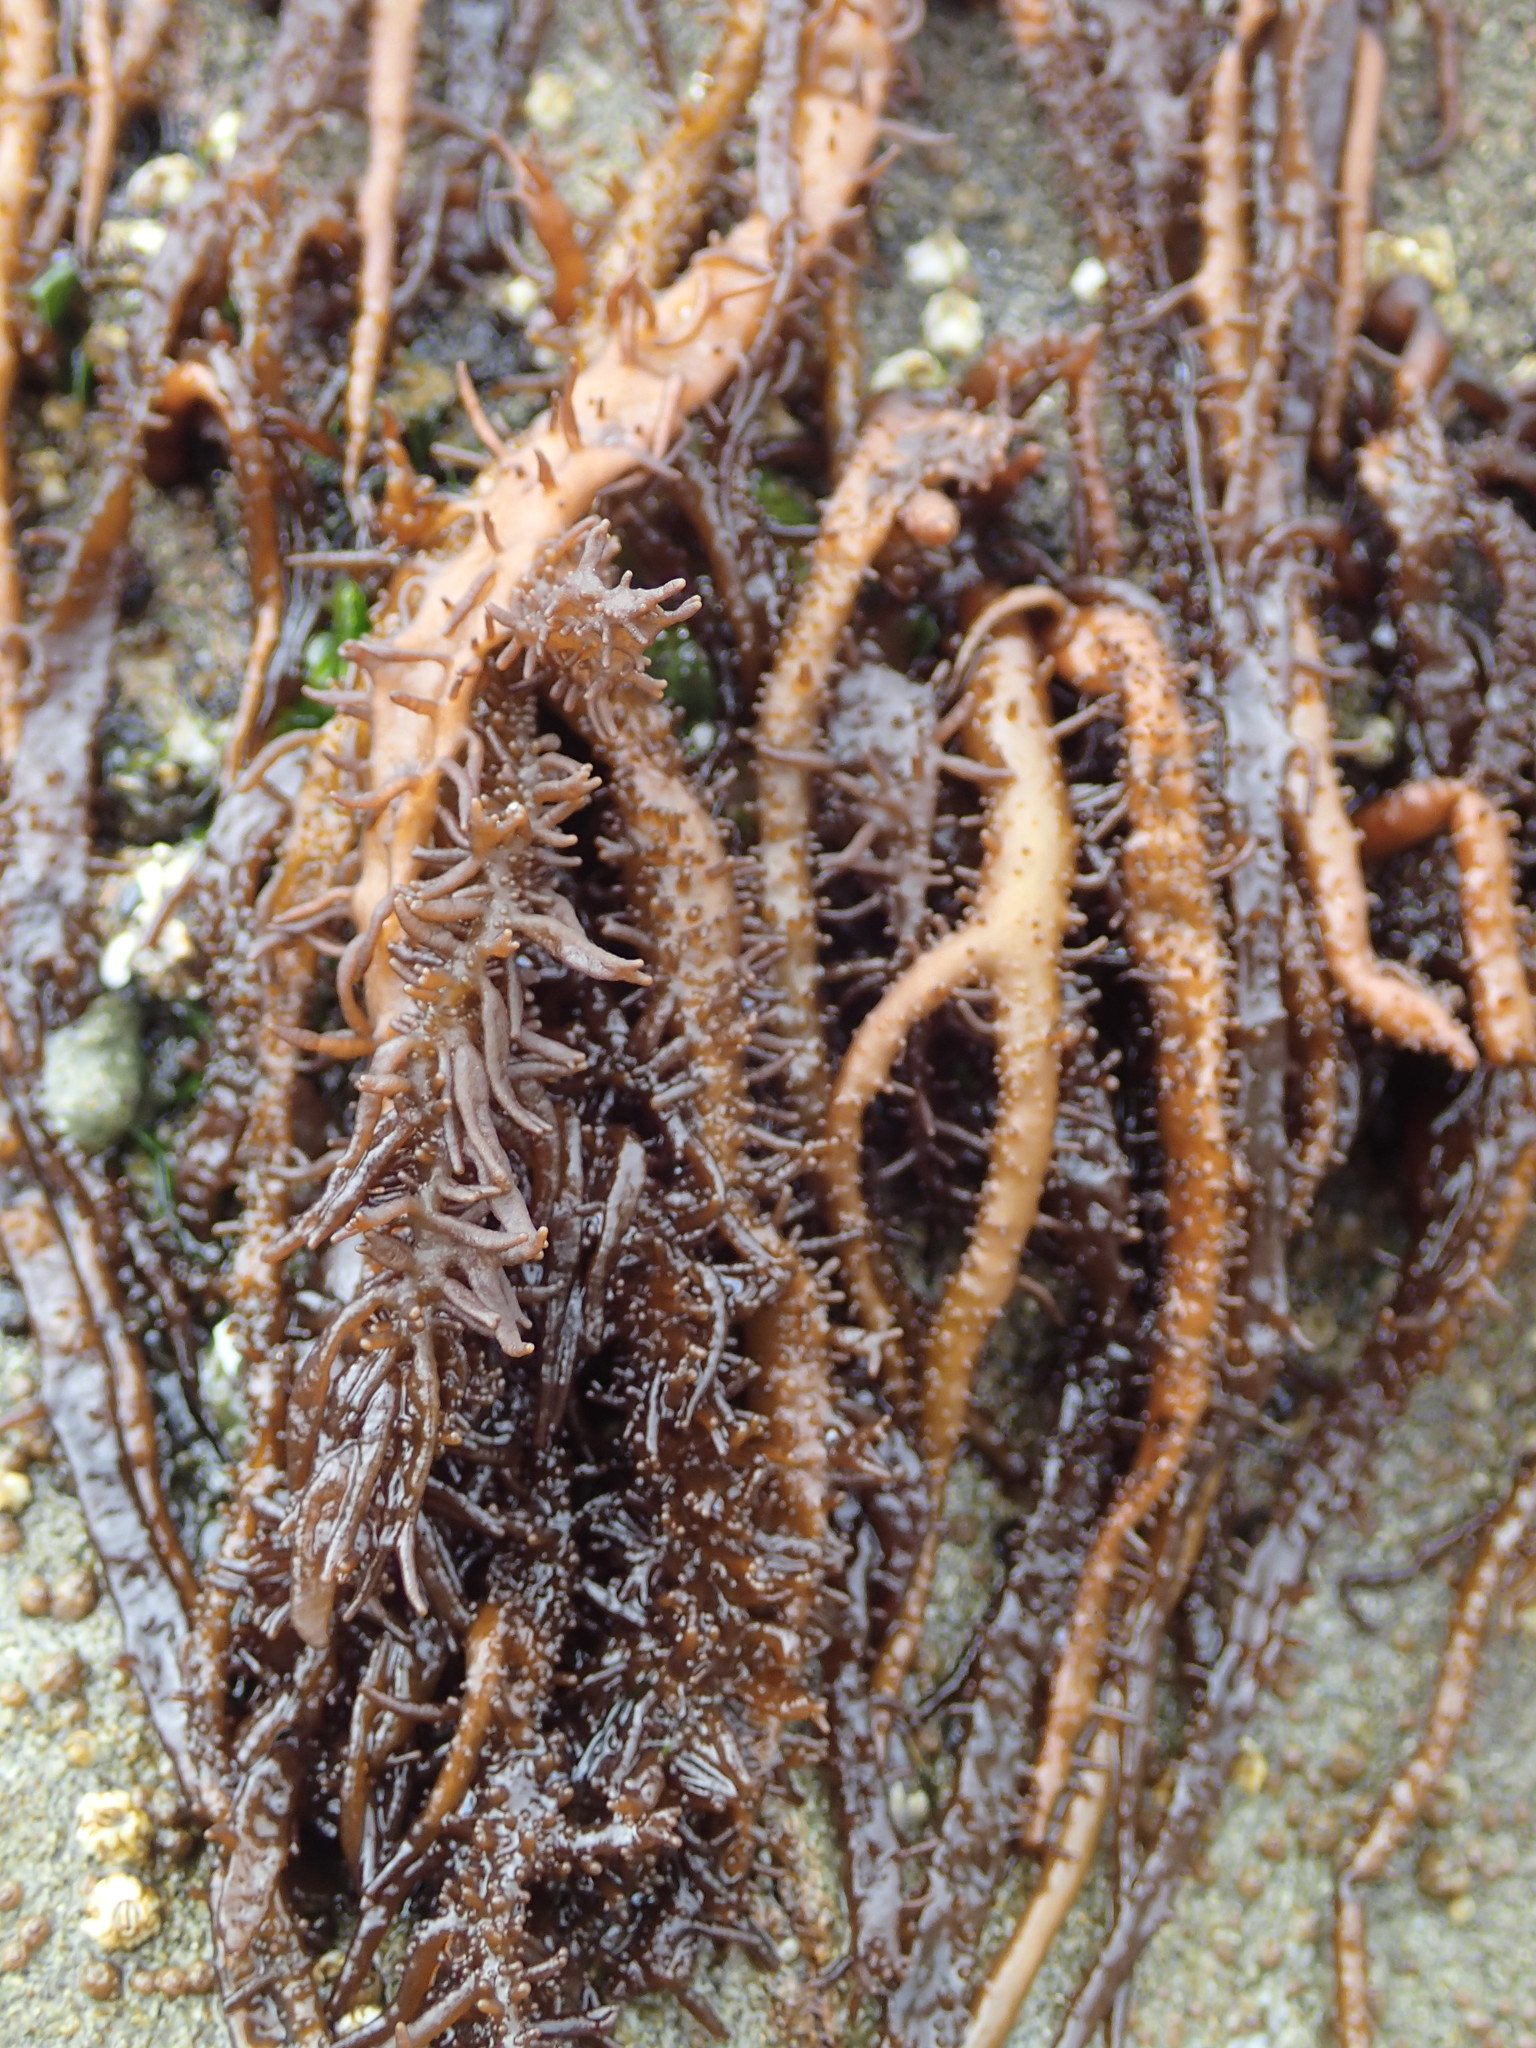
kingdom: Plantae
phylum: Rhodophyta
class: Florideophyceae
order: Nemaliales
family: Liagoraceae
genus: Cumagloia
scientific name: Cumagloia andersonii
